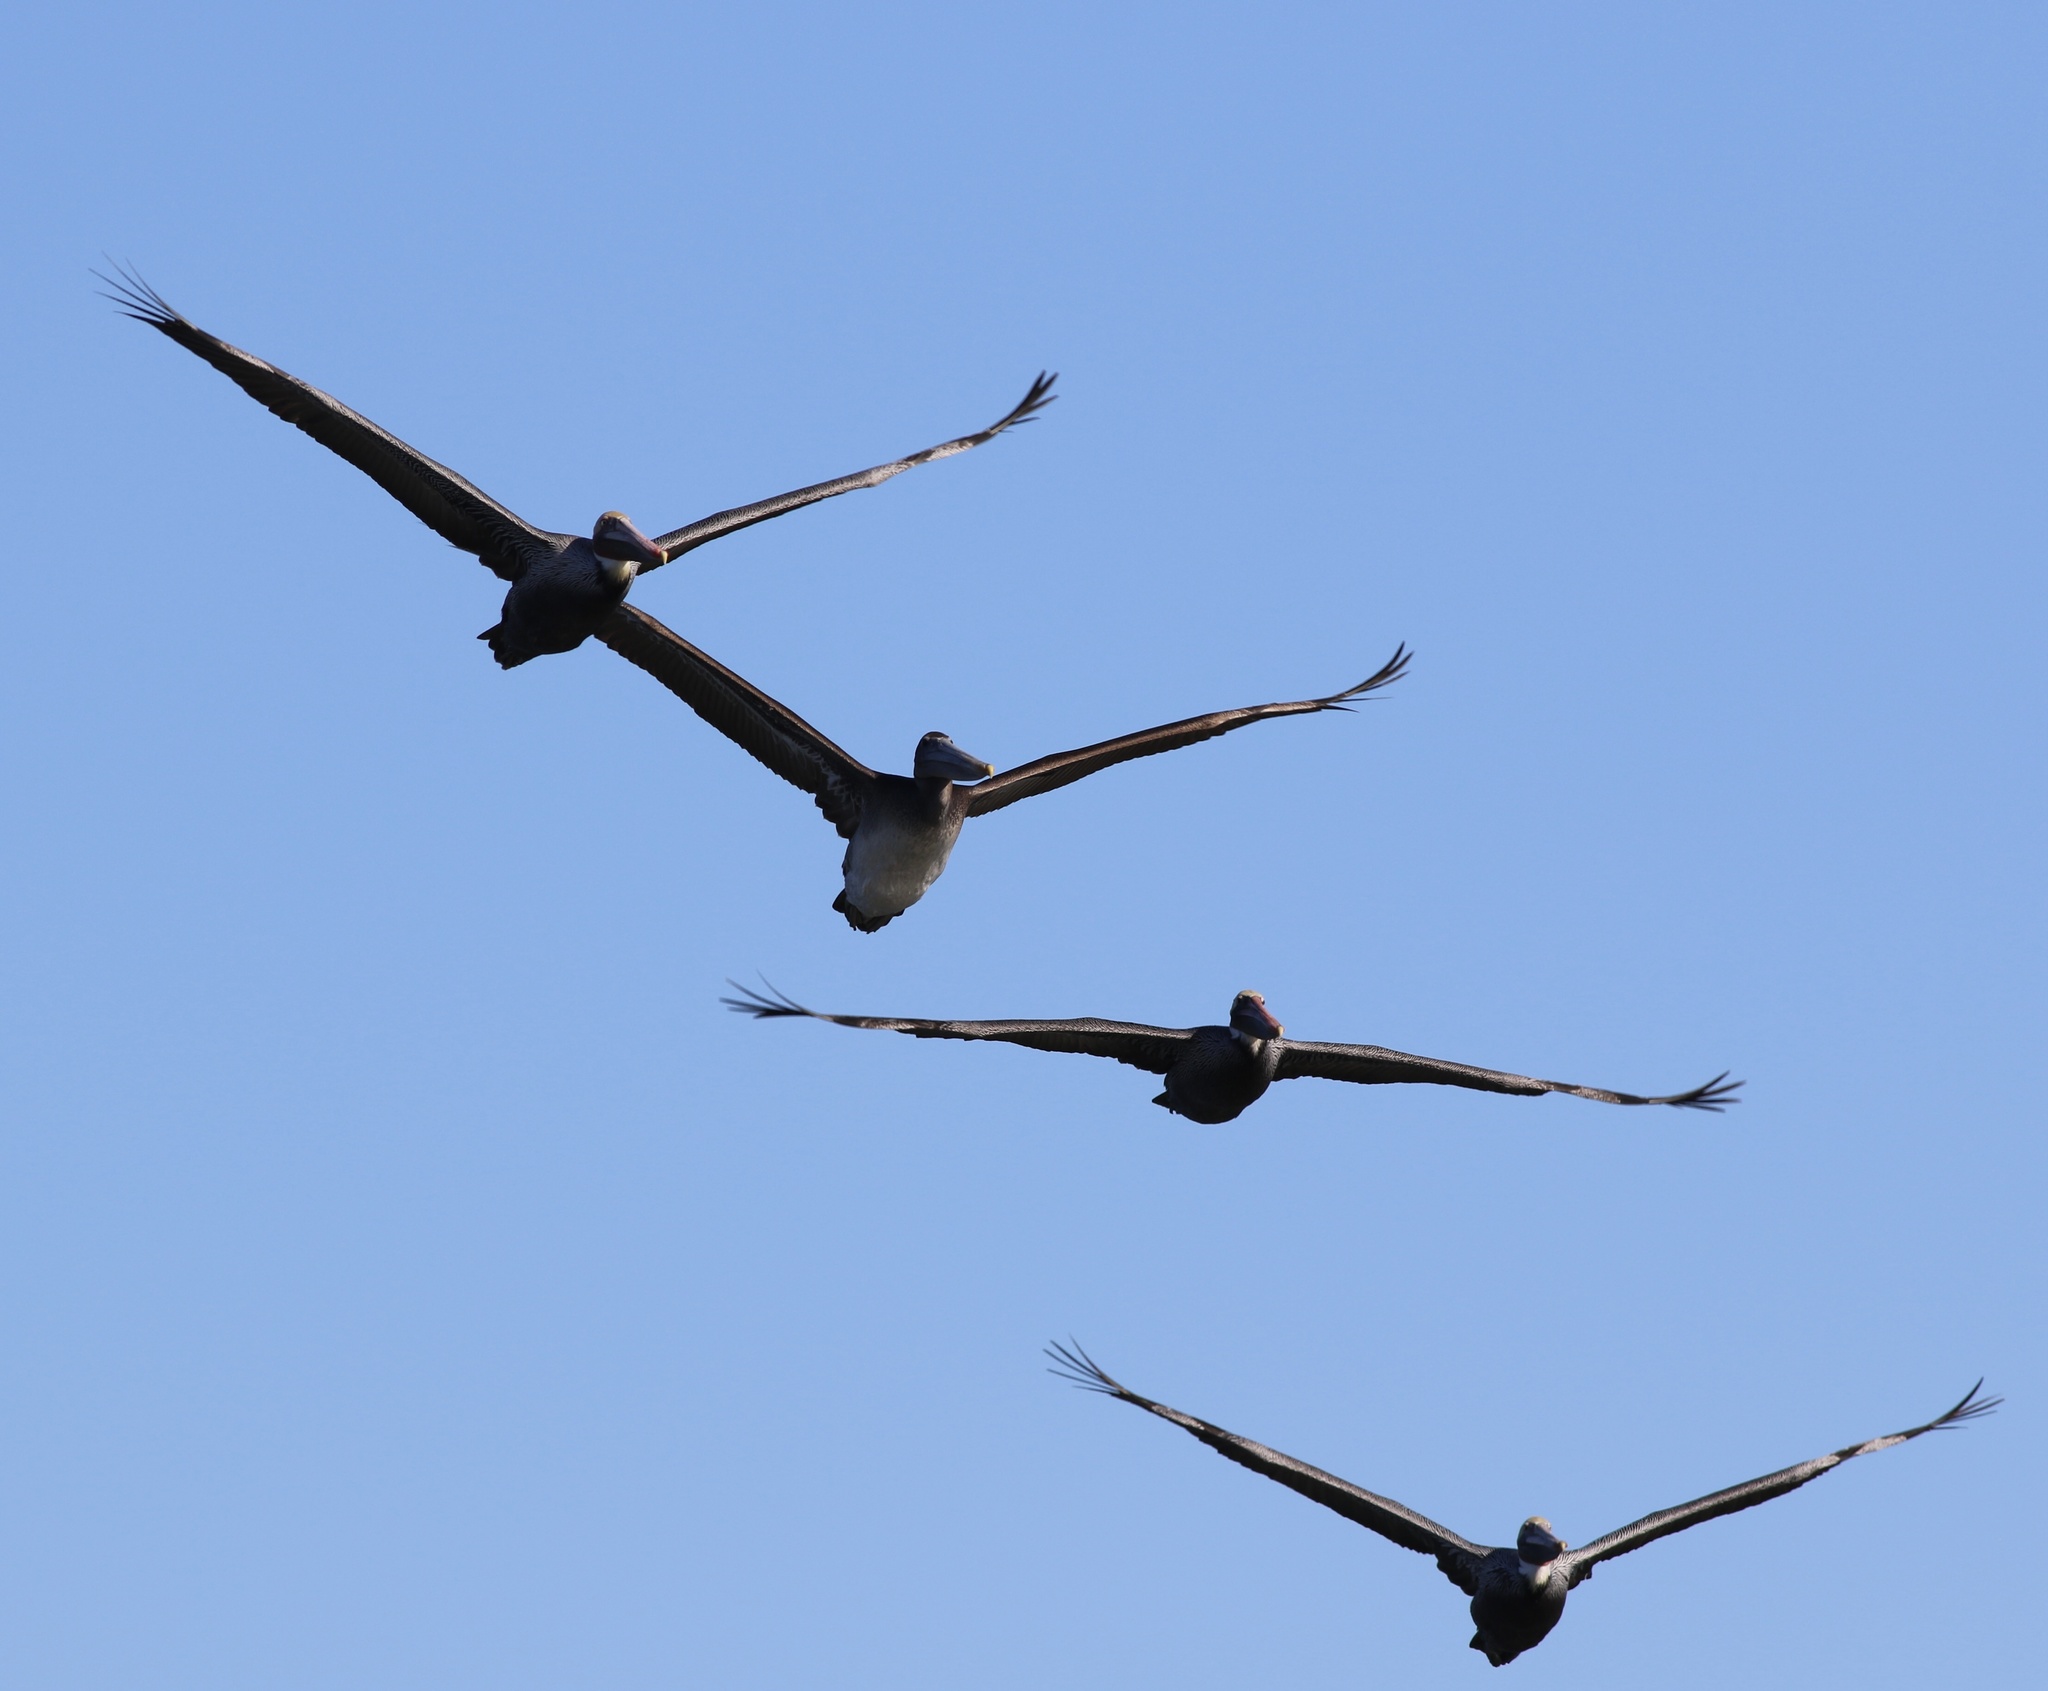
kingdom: Animalia
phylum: Chordata
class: Aves
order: Pelecaniformes
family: Pelecanidae
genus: Pelecanus
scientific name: Pelecanus occidentalis
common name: Brown pelican
